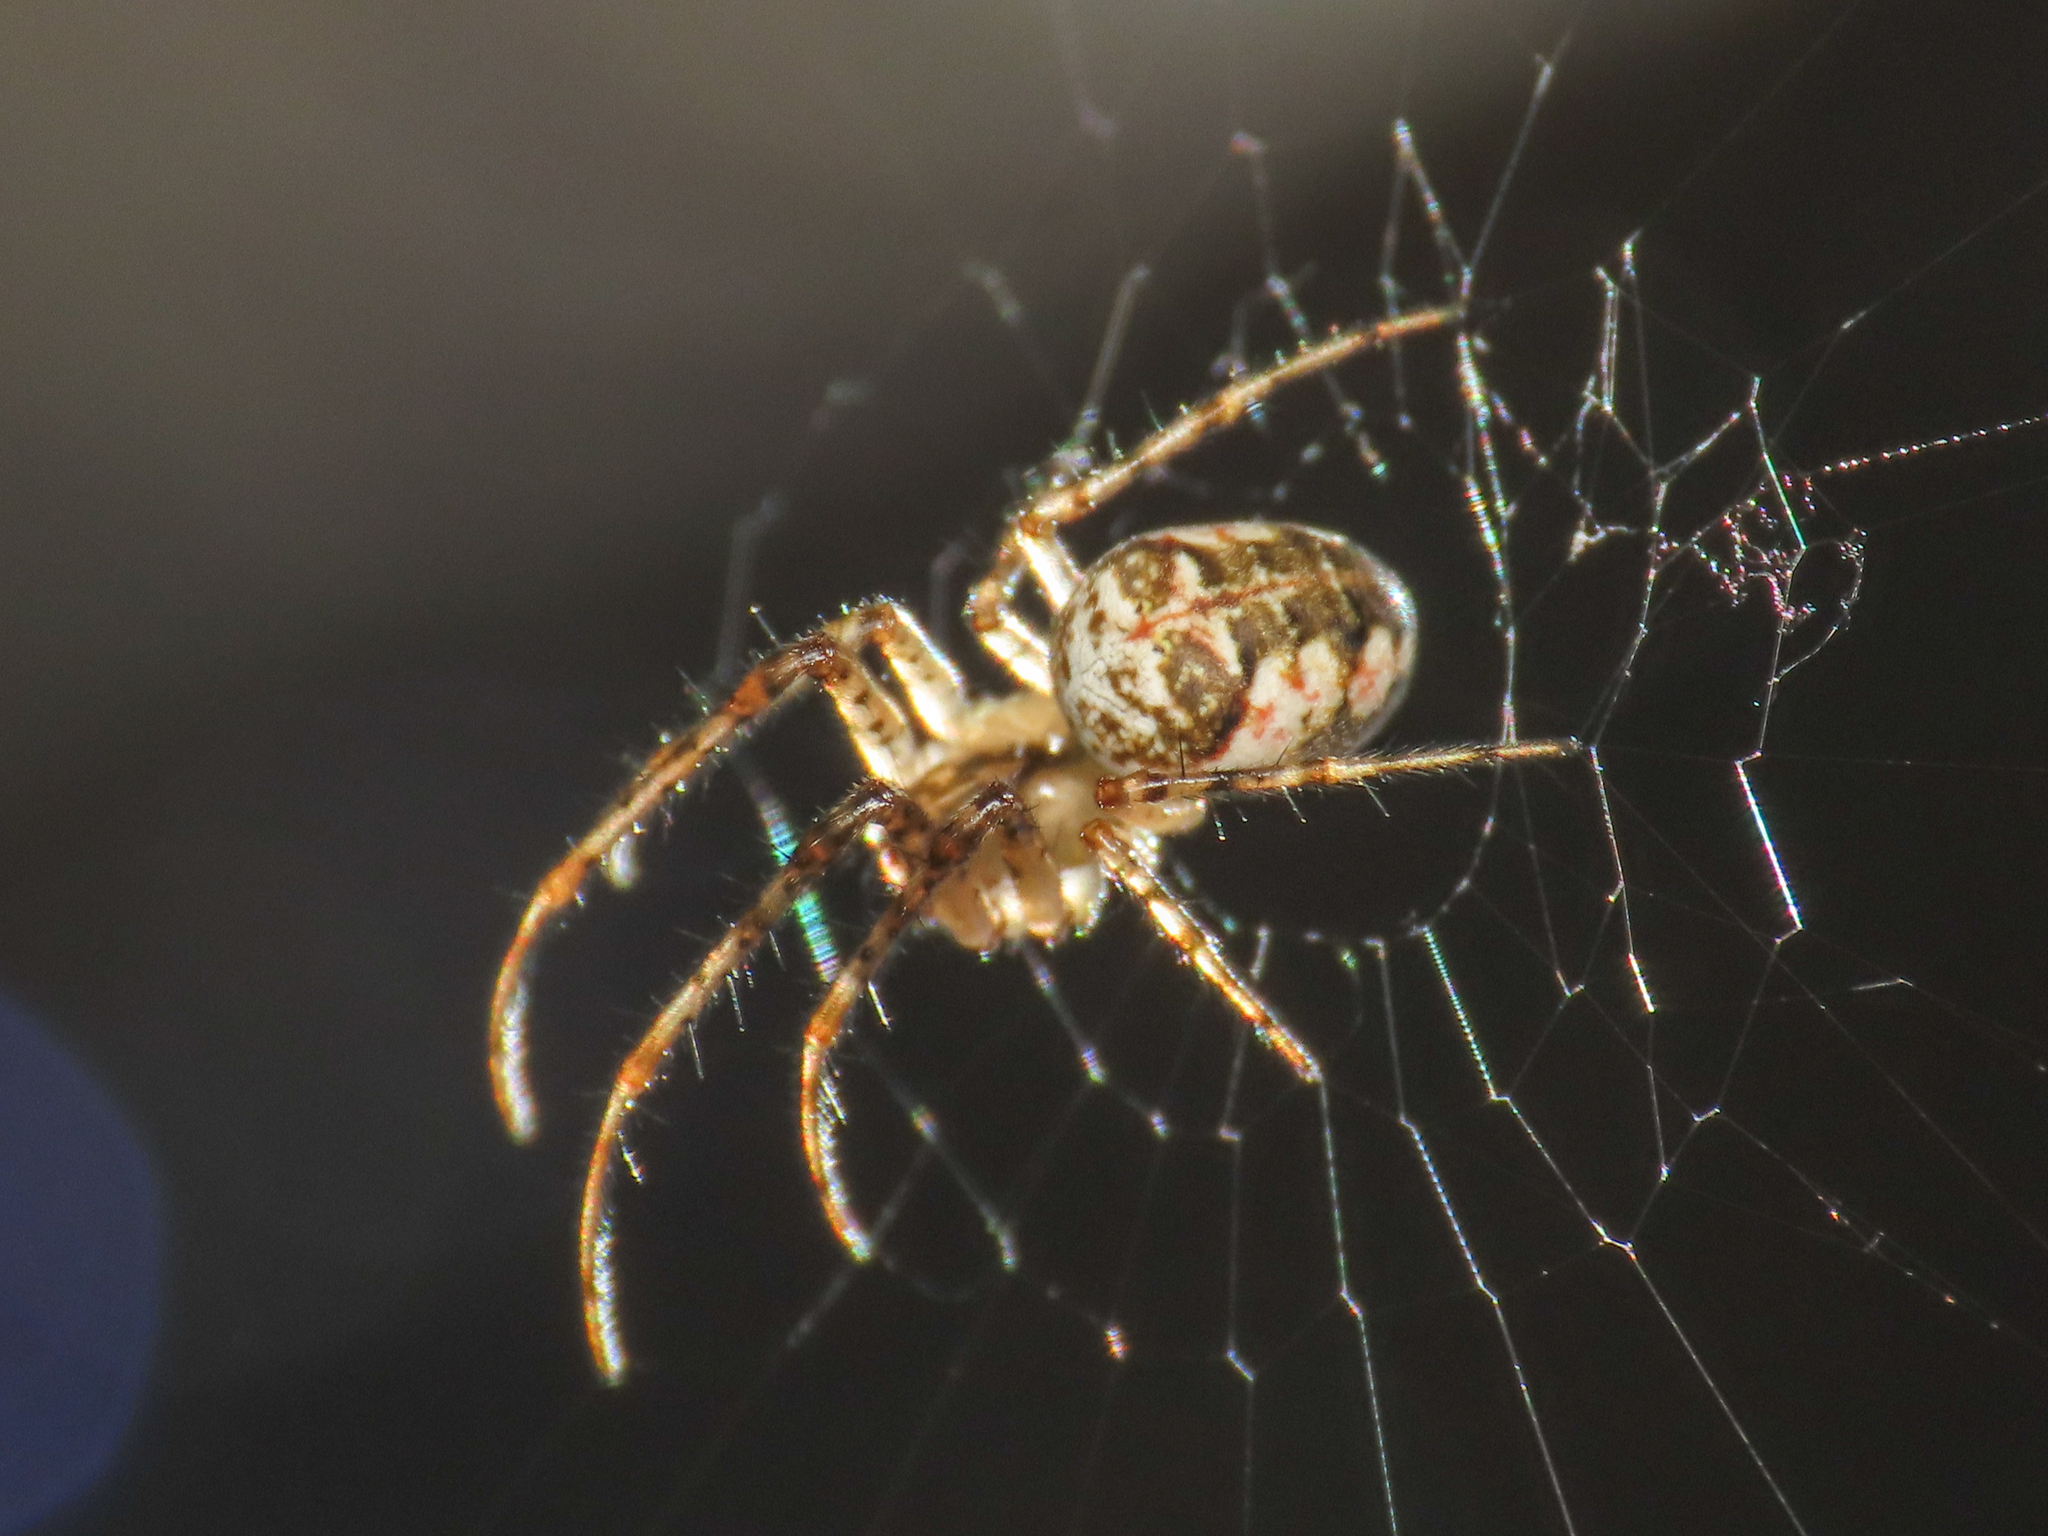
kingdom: Animalia
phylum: Arthropoda
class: Arachnida
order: Araneae
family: Tetragnathidae
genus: Metellina
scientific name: Metellina mengei
